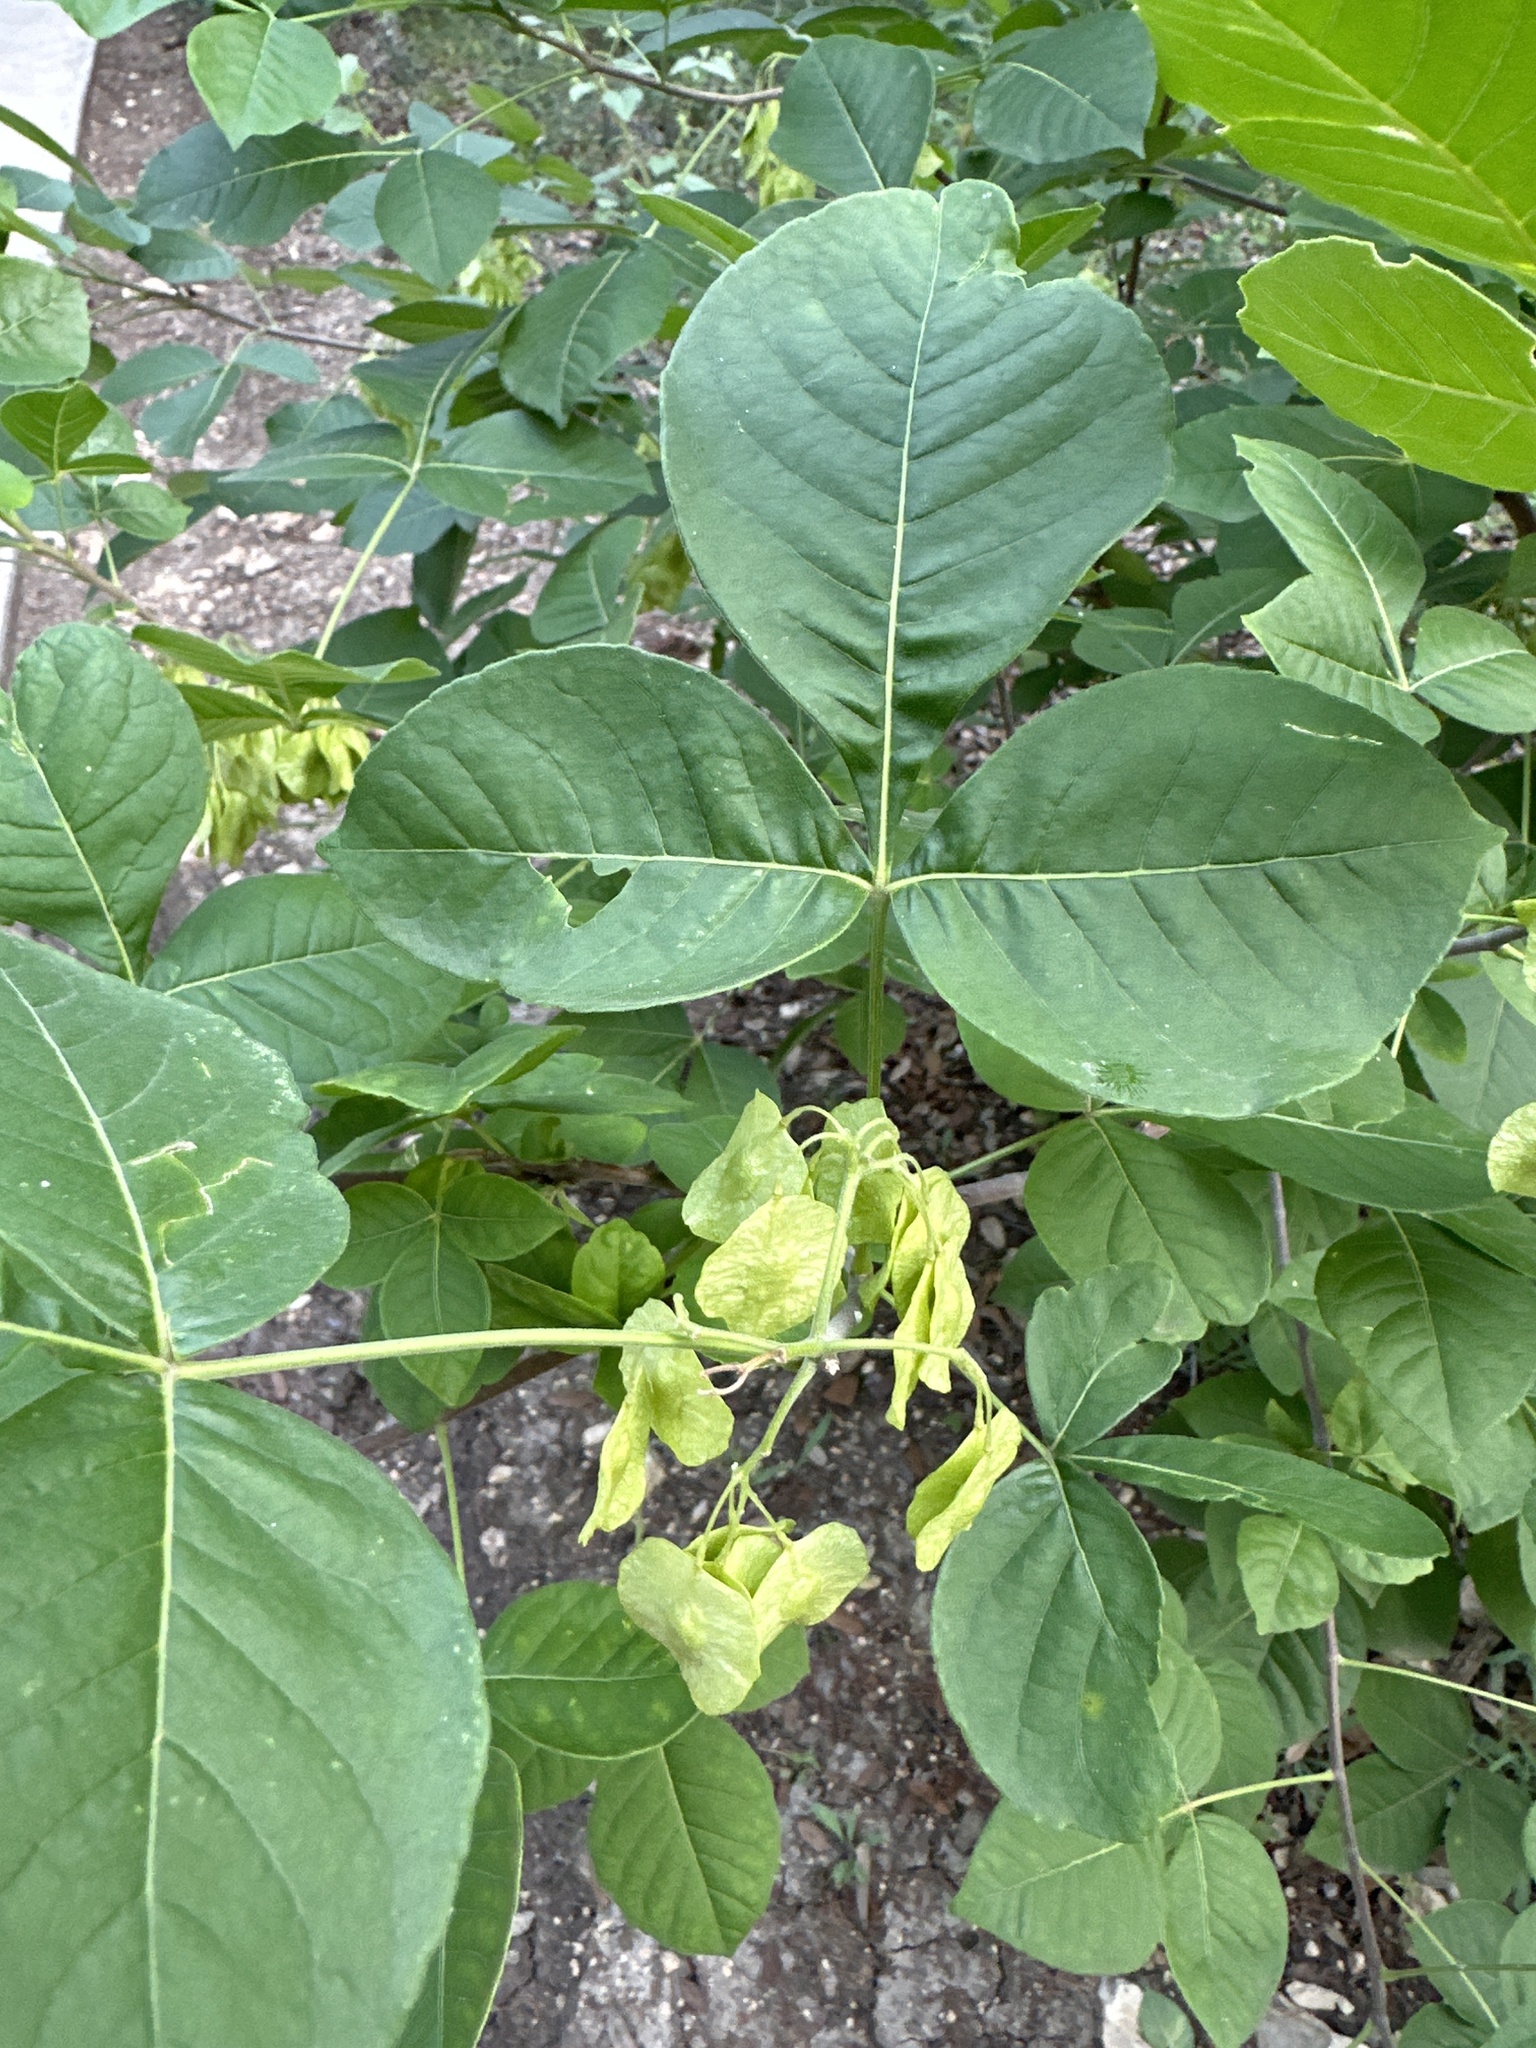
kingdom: Plantae
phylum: Tracheophyta
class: Magnoliopsida
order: Sapindales
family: Rutaceae
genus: Ptelea
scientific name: Ptelea trifoliata
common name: Common hop-tree
